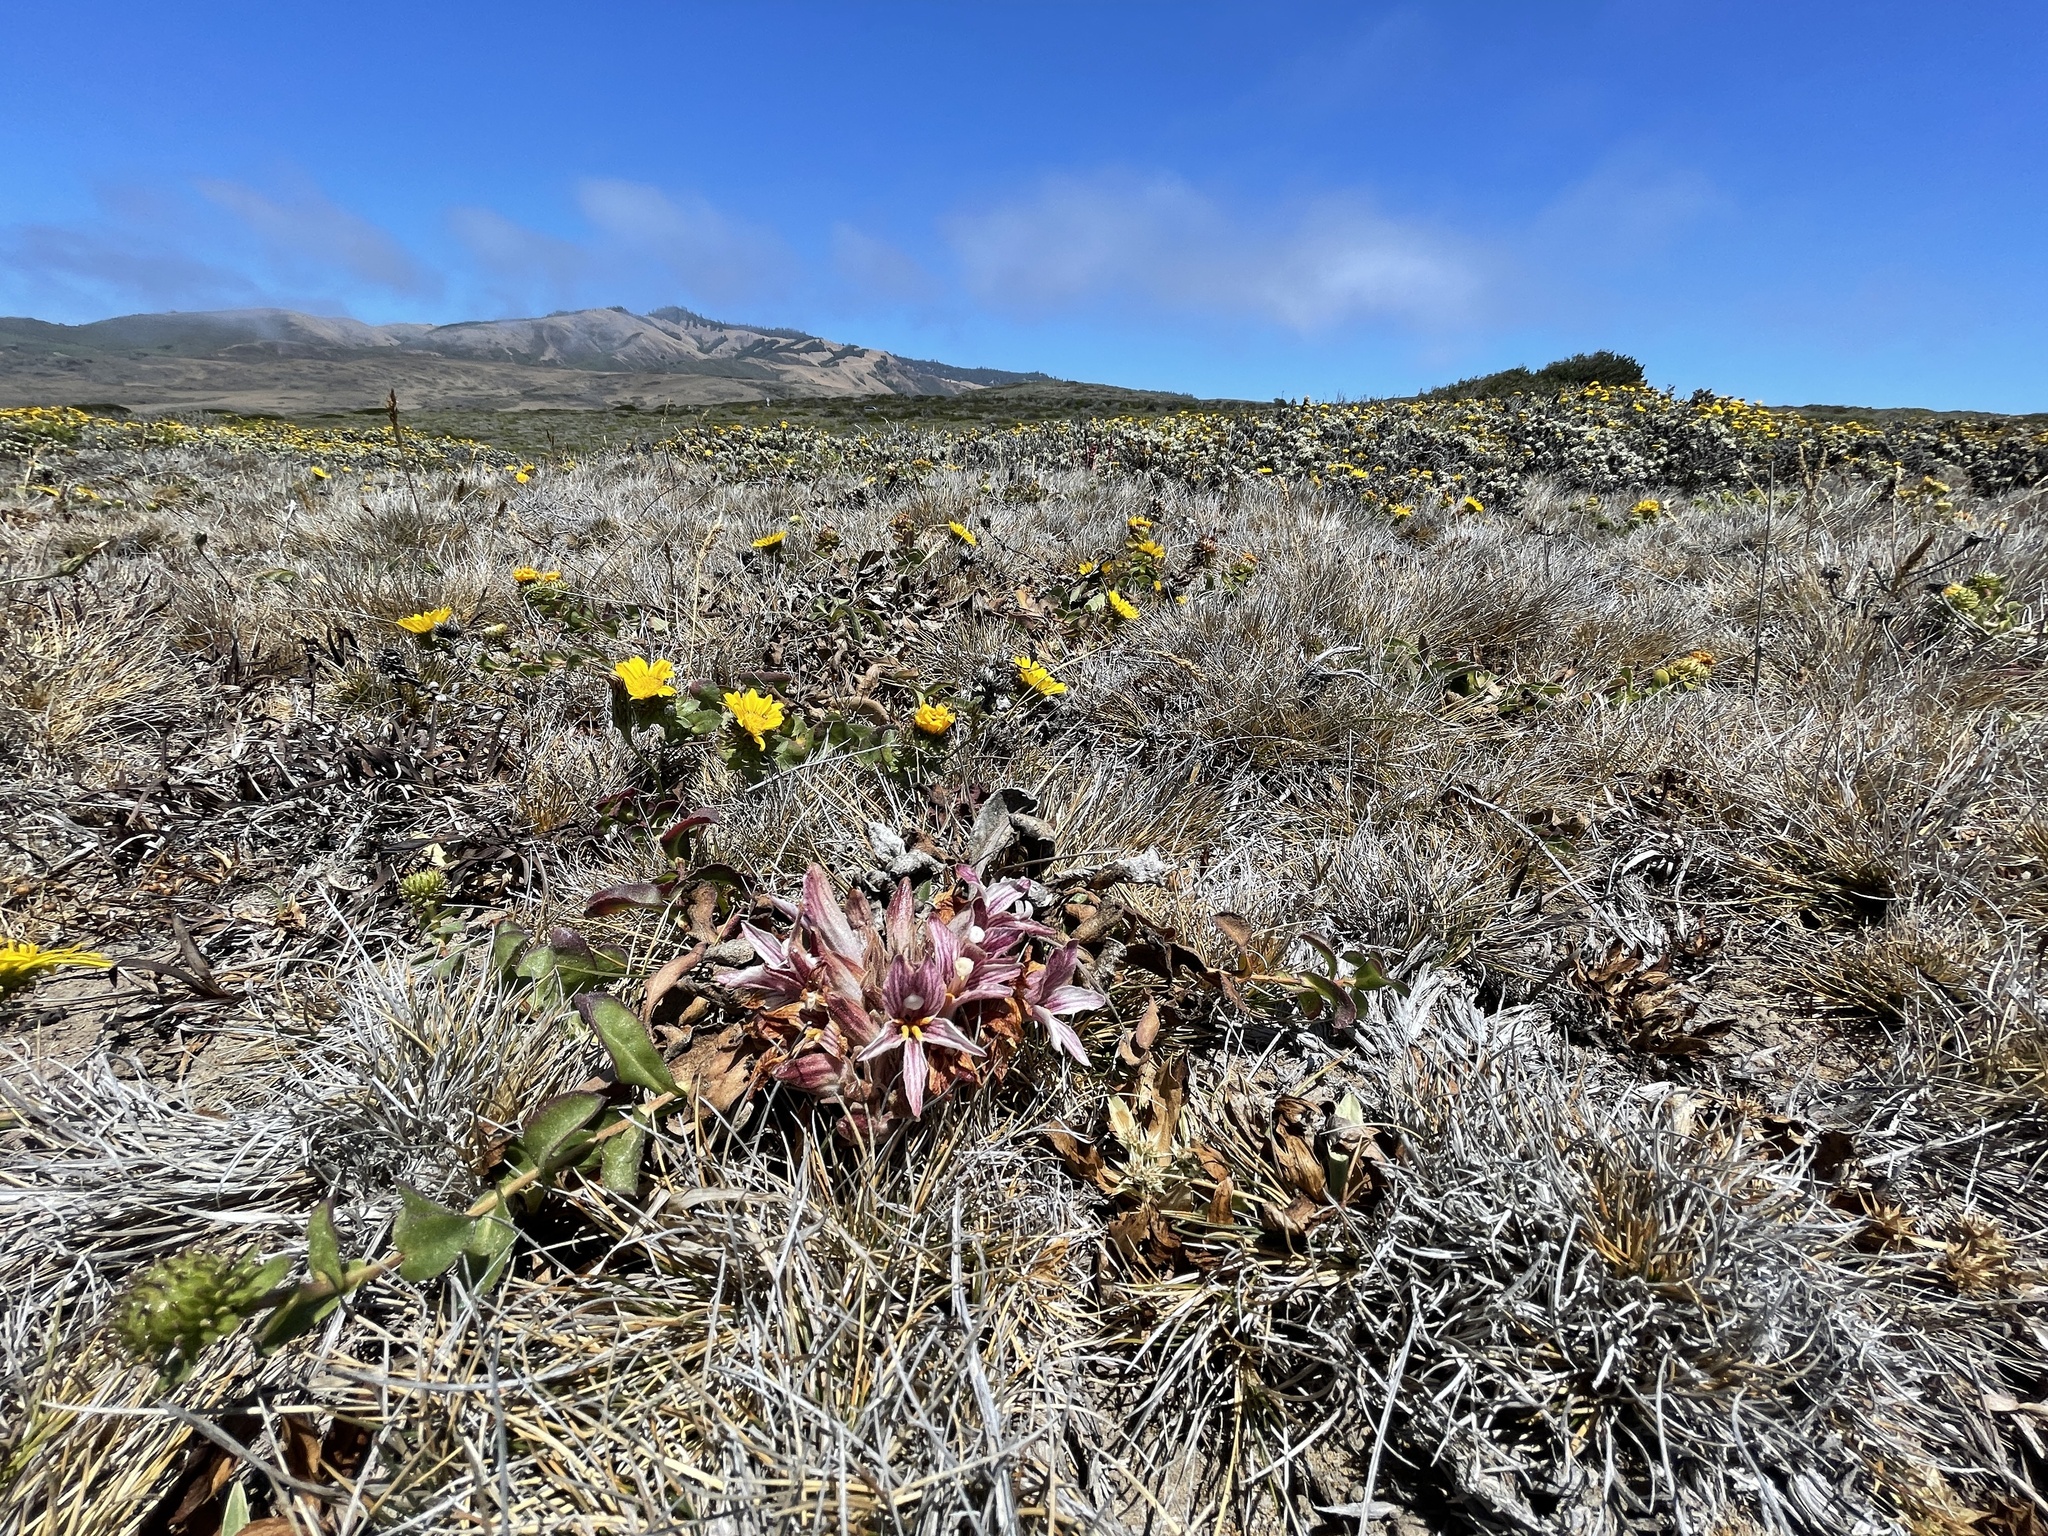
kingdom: Plantae
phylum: Tracheophyta
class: Magnoliopsida
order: Lamiales
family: Orobanchaceae
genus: Aphyllon
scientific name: Aphyllon californicum
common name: California broomrape
